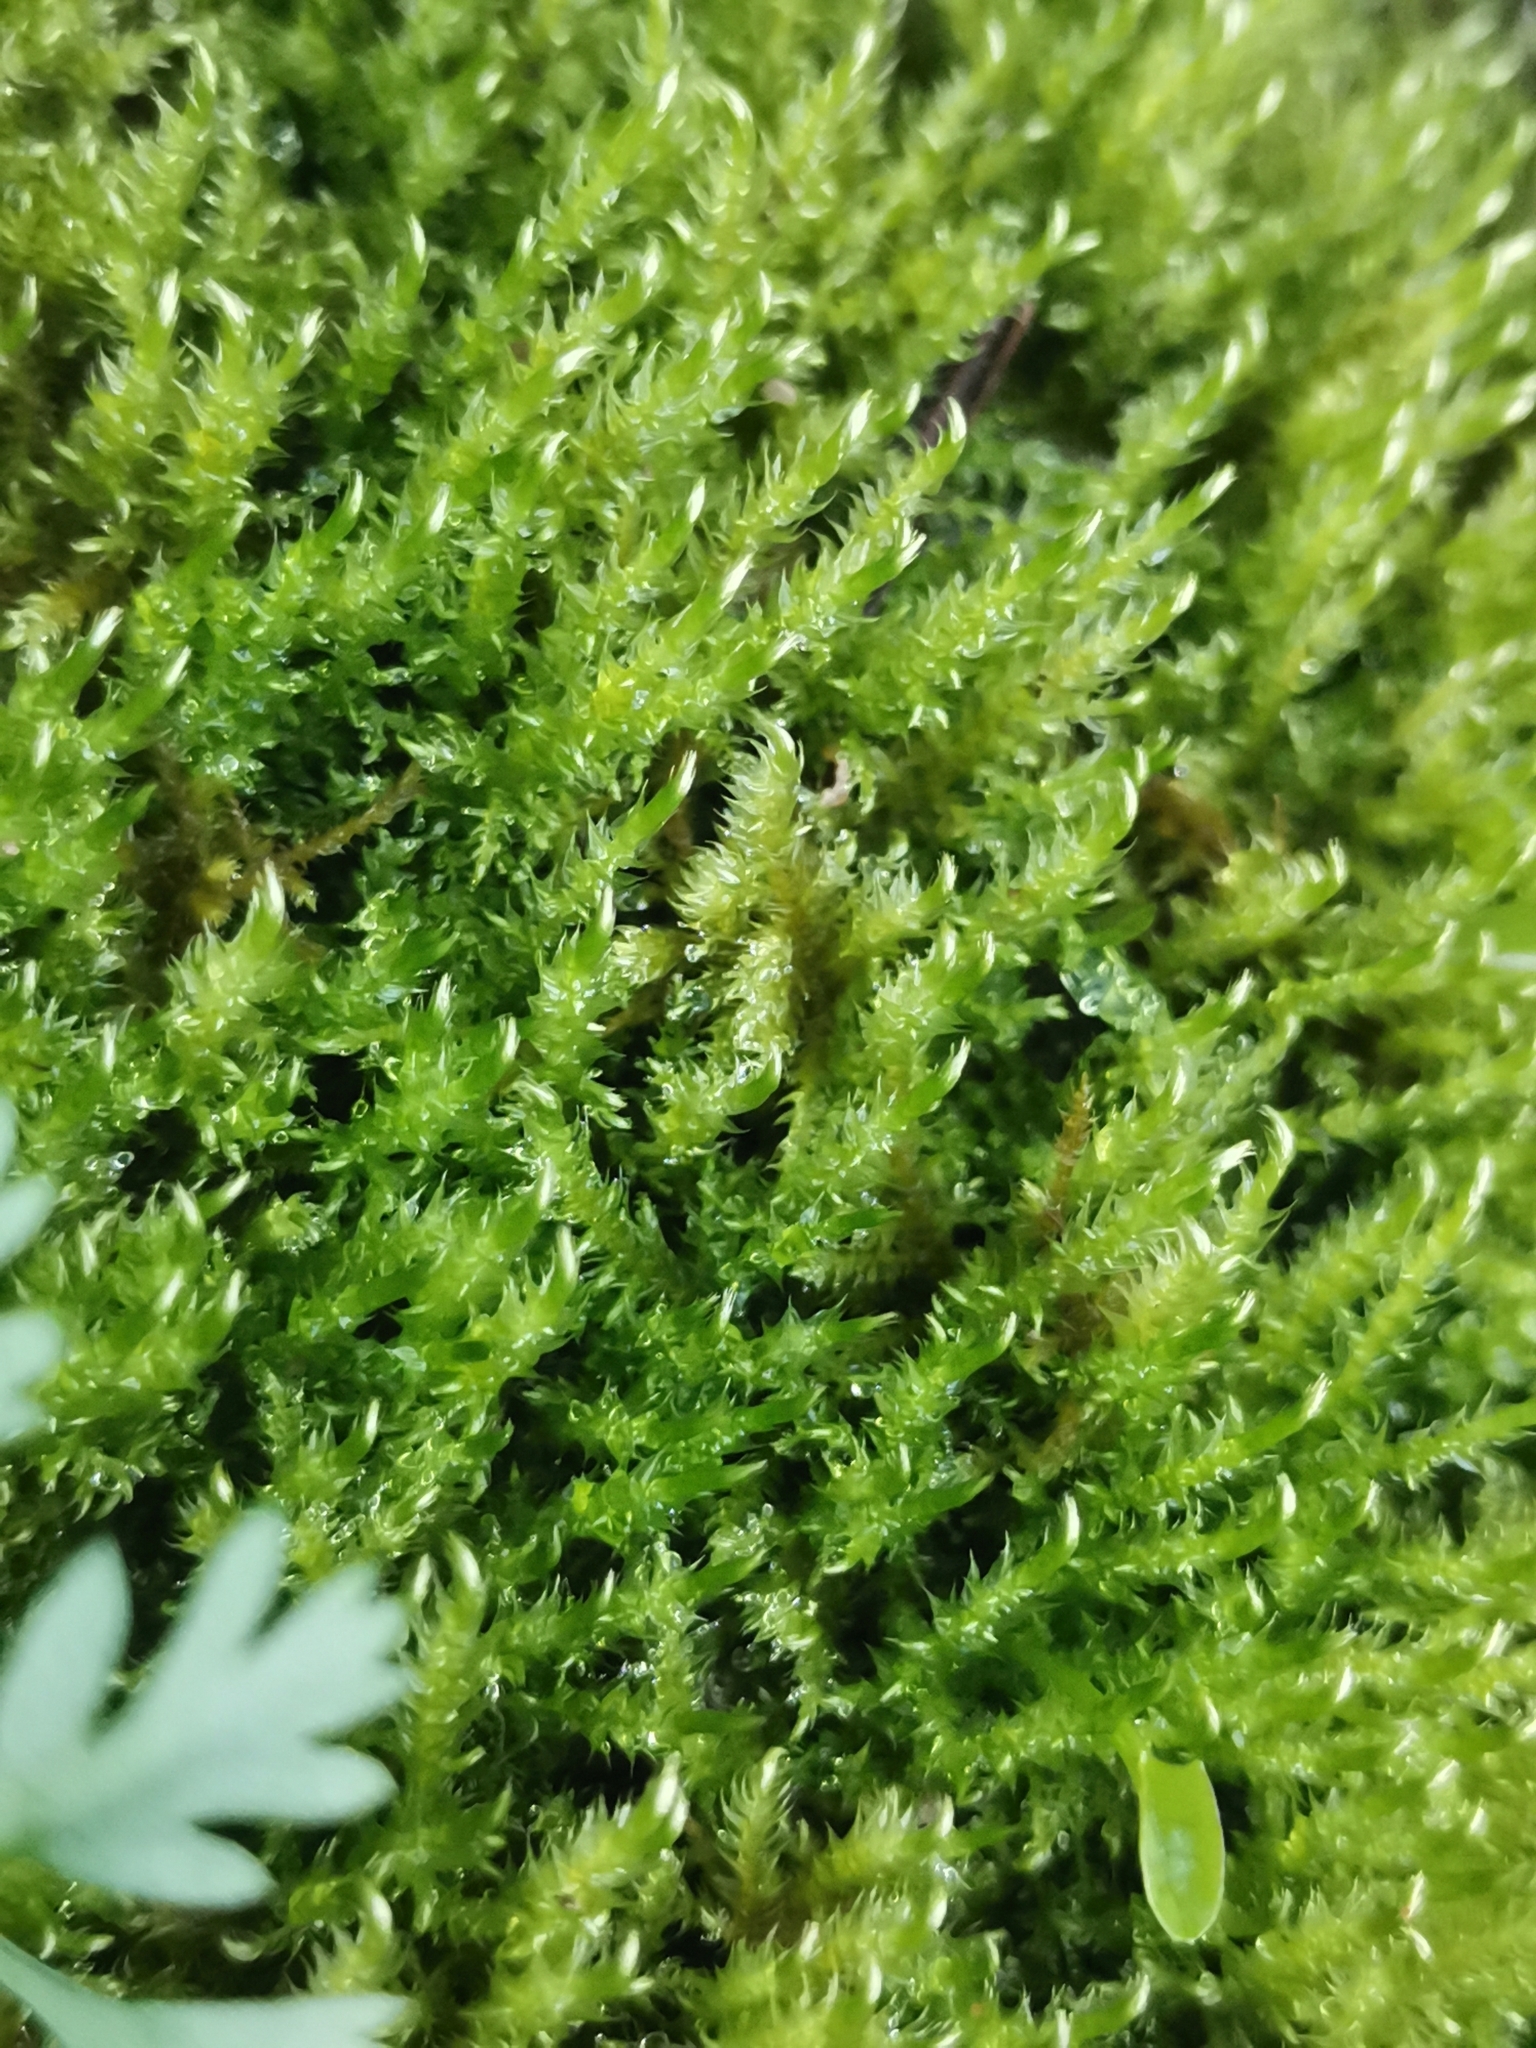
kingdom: Plantae
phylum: Bryophyta
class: Bryopsida
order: Hypnales
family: Amblystegiaceae
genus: Cratoneuron
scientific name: Cratoneuron filicinum
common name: Fern-leaved hook moss
